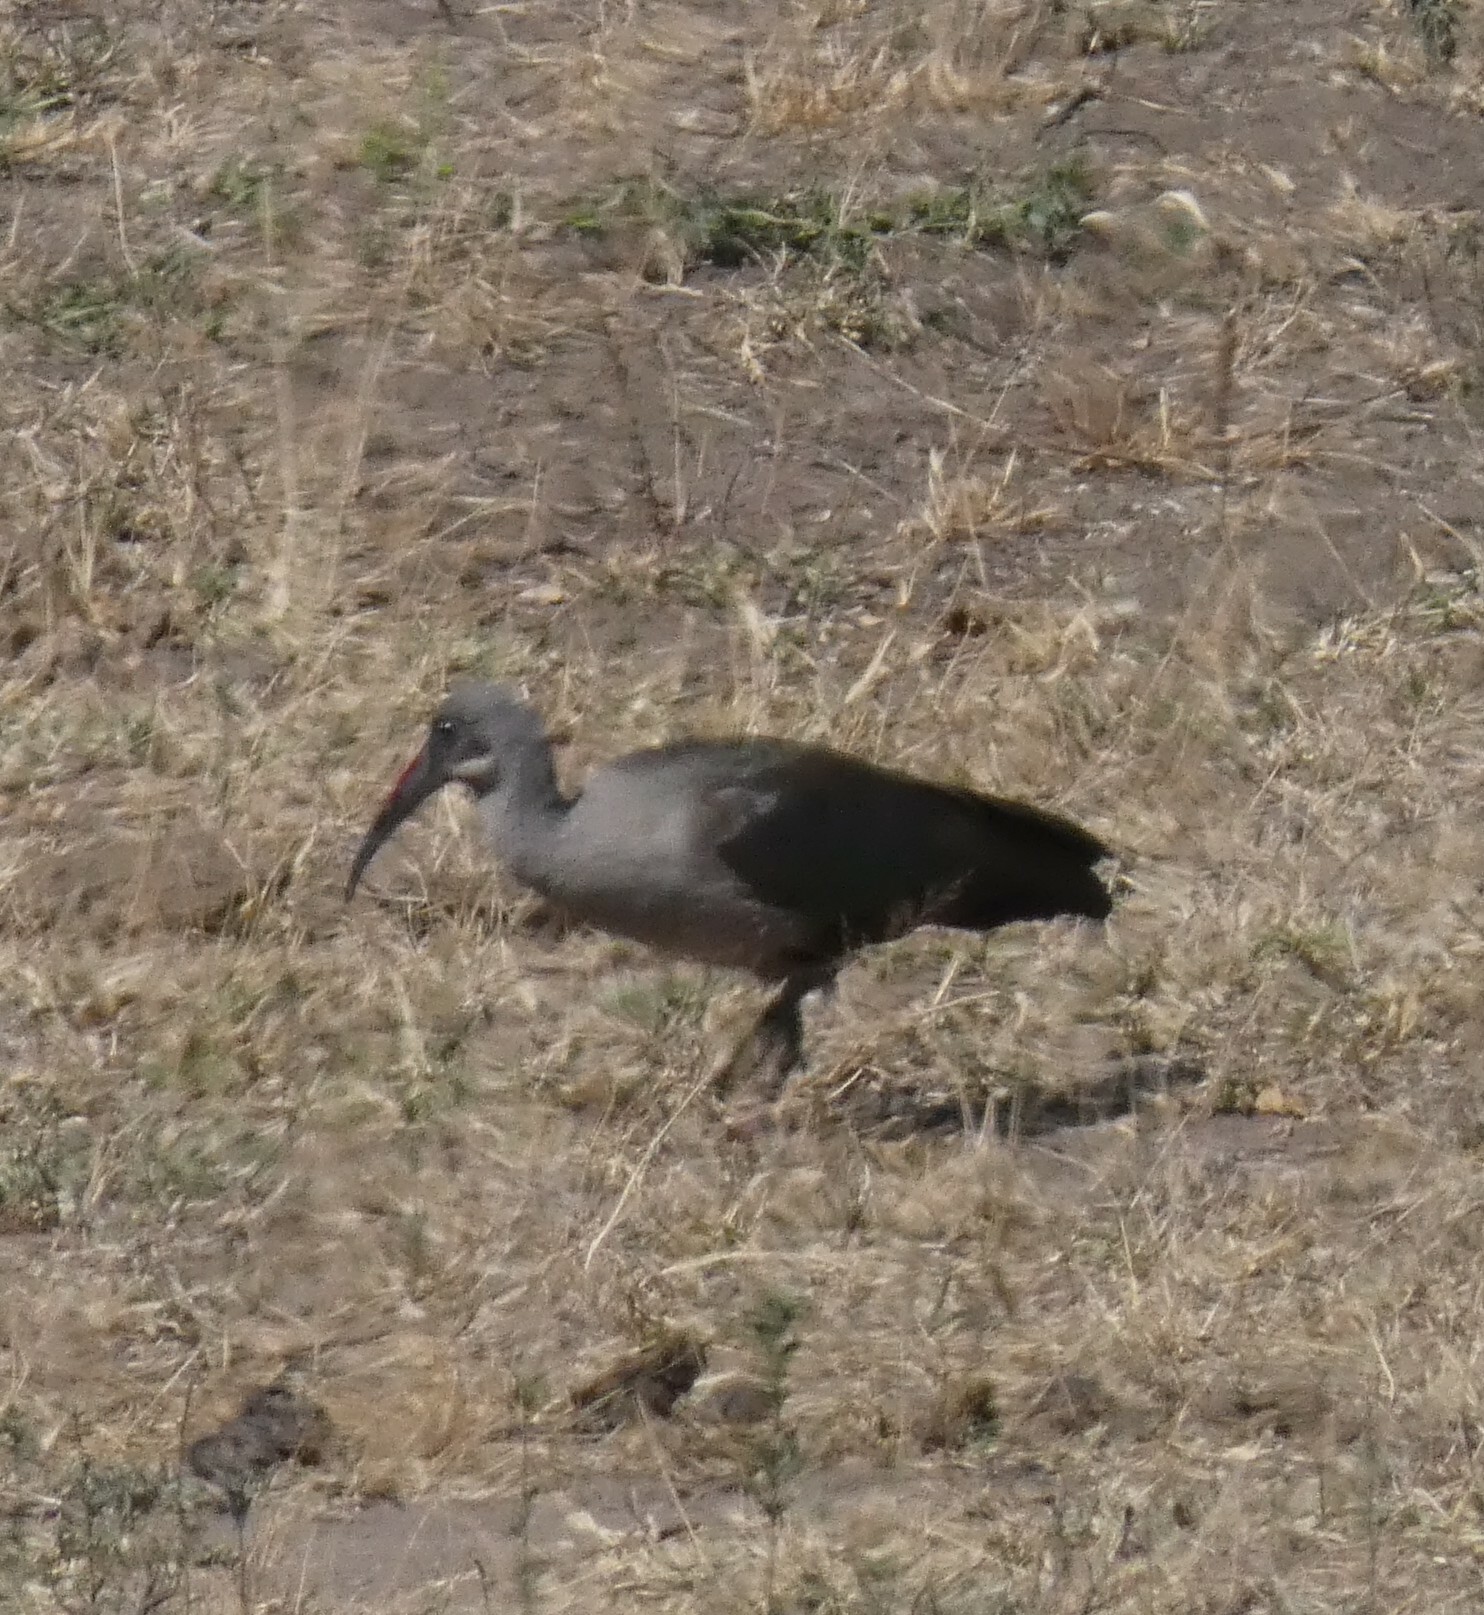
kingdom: Animalia
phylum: Chordata
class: Aves
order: Pelecaniformes
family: Threskiornithidae
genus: Bostrychia
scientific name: Bostrychia hagedash
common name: Hadada ibis
